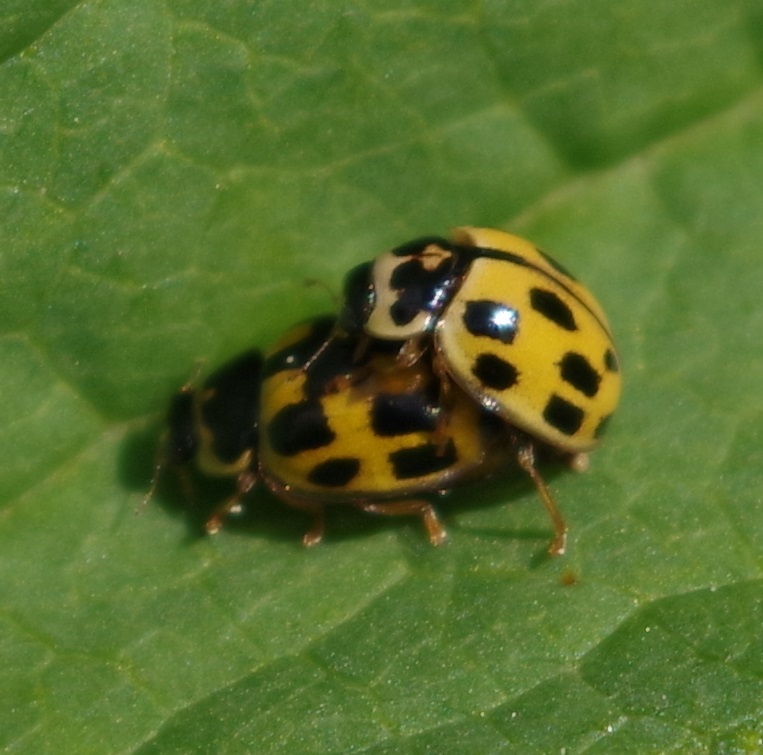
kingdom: Animalia
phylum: Arthropoda
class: Insecta
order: Coleoptera
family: Coccinellidae
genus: Propylaea
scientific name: Propylaea quatuordecimpunctata
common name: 14-spotted ladybird beetle
